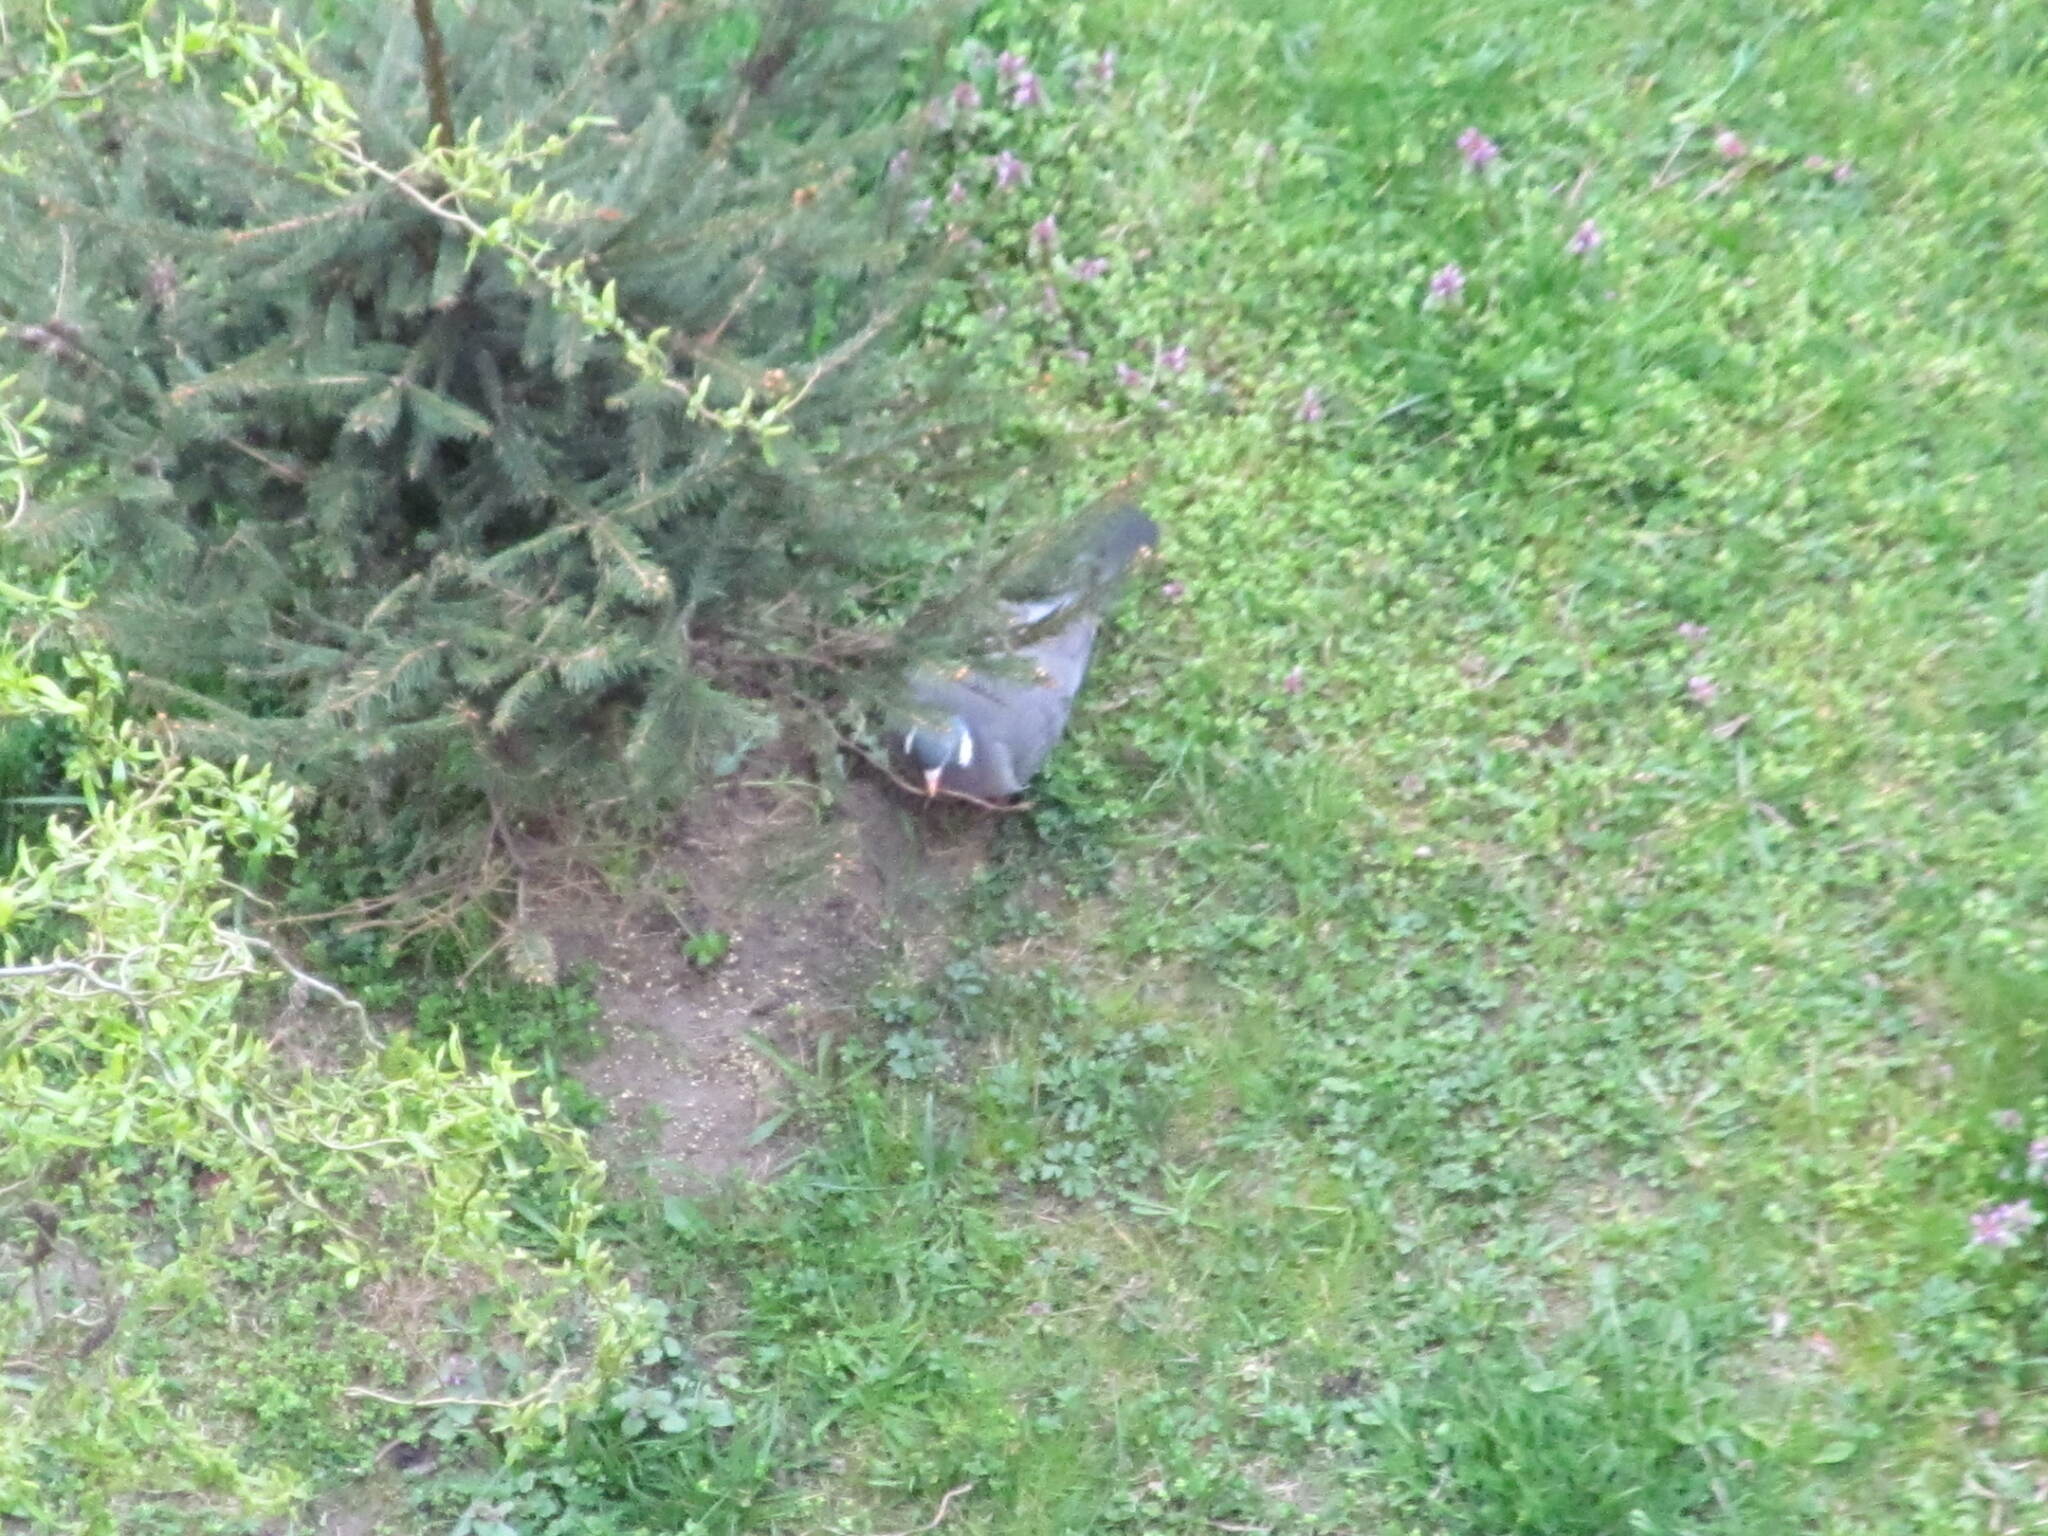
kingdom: Animalia
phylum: Chordata
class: Aves
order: Columbiformes
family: Columbidae
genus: Columba
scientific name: Columba palumbus
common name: Common wood pigeon
